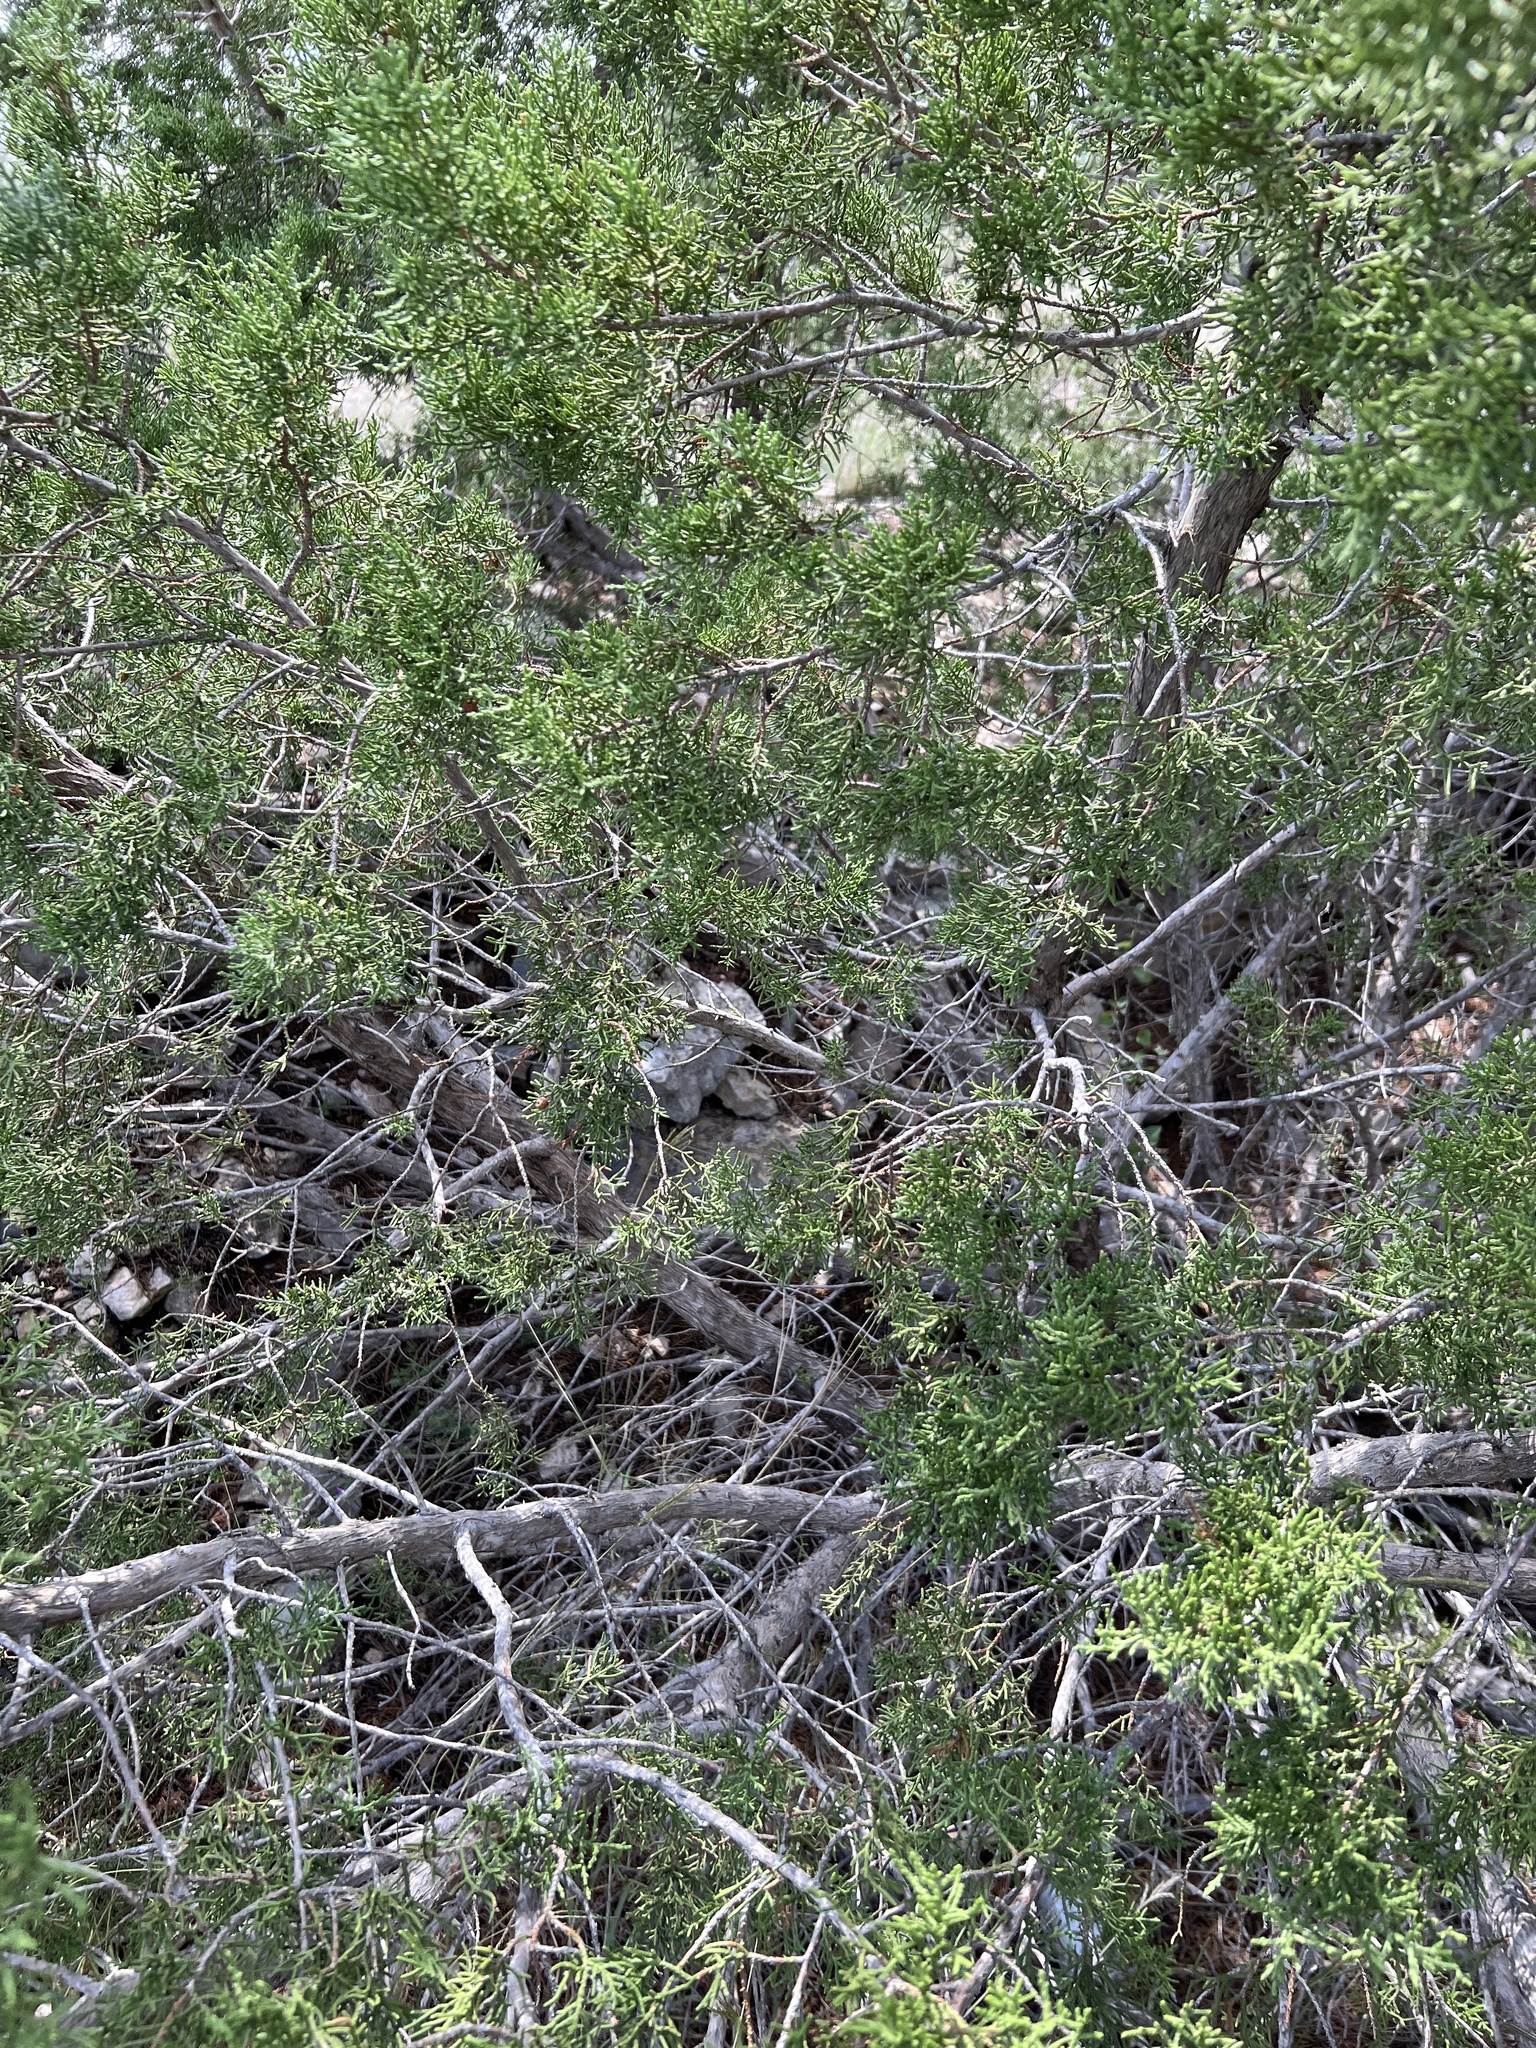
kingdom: Plantae
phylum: Tracheophyta
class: Pinopsida
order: Pinales
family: Cupressaceae
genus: Juniperus
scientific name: Juniperus ashei
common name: Mexican juniper
